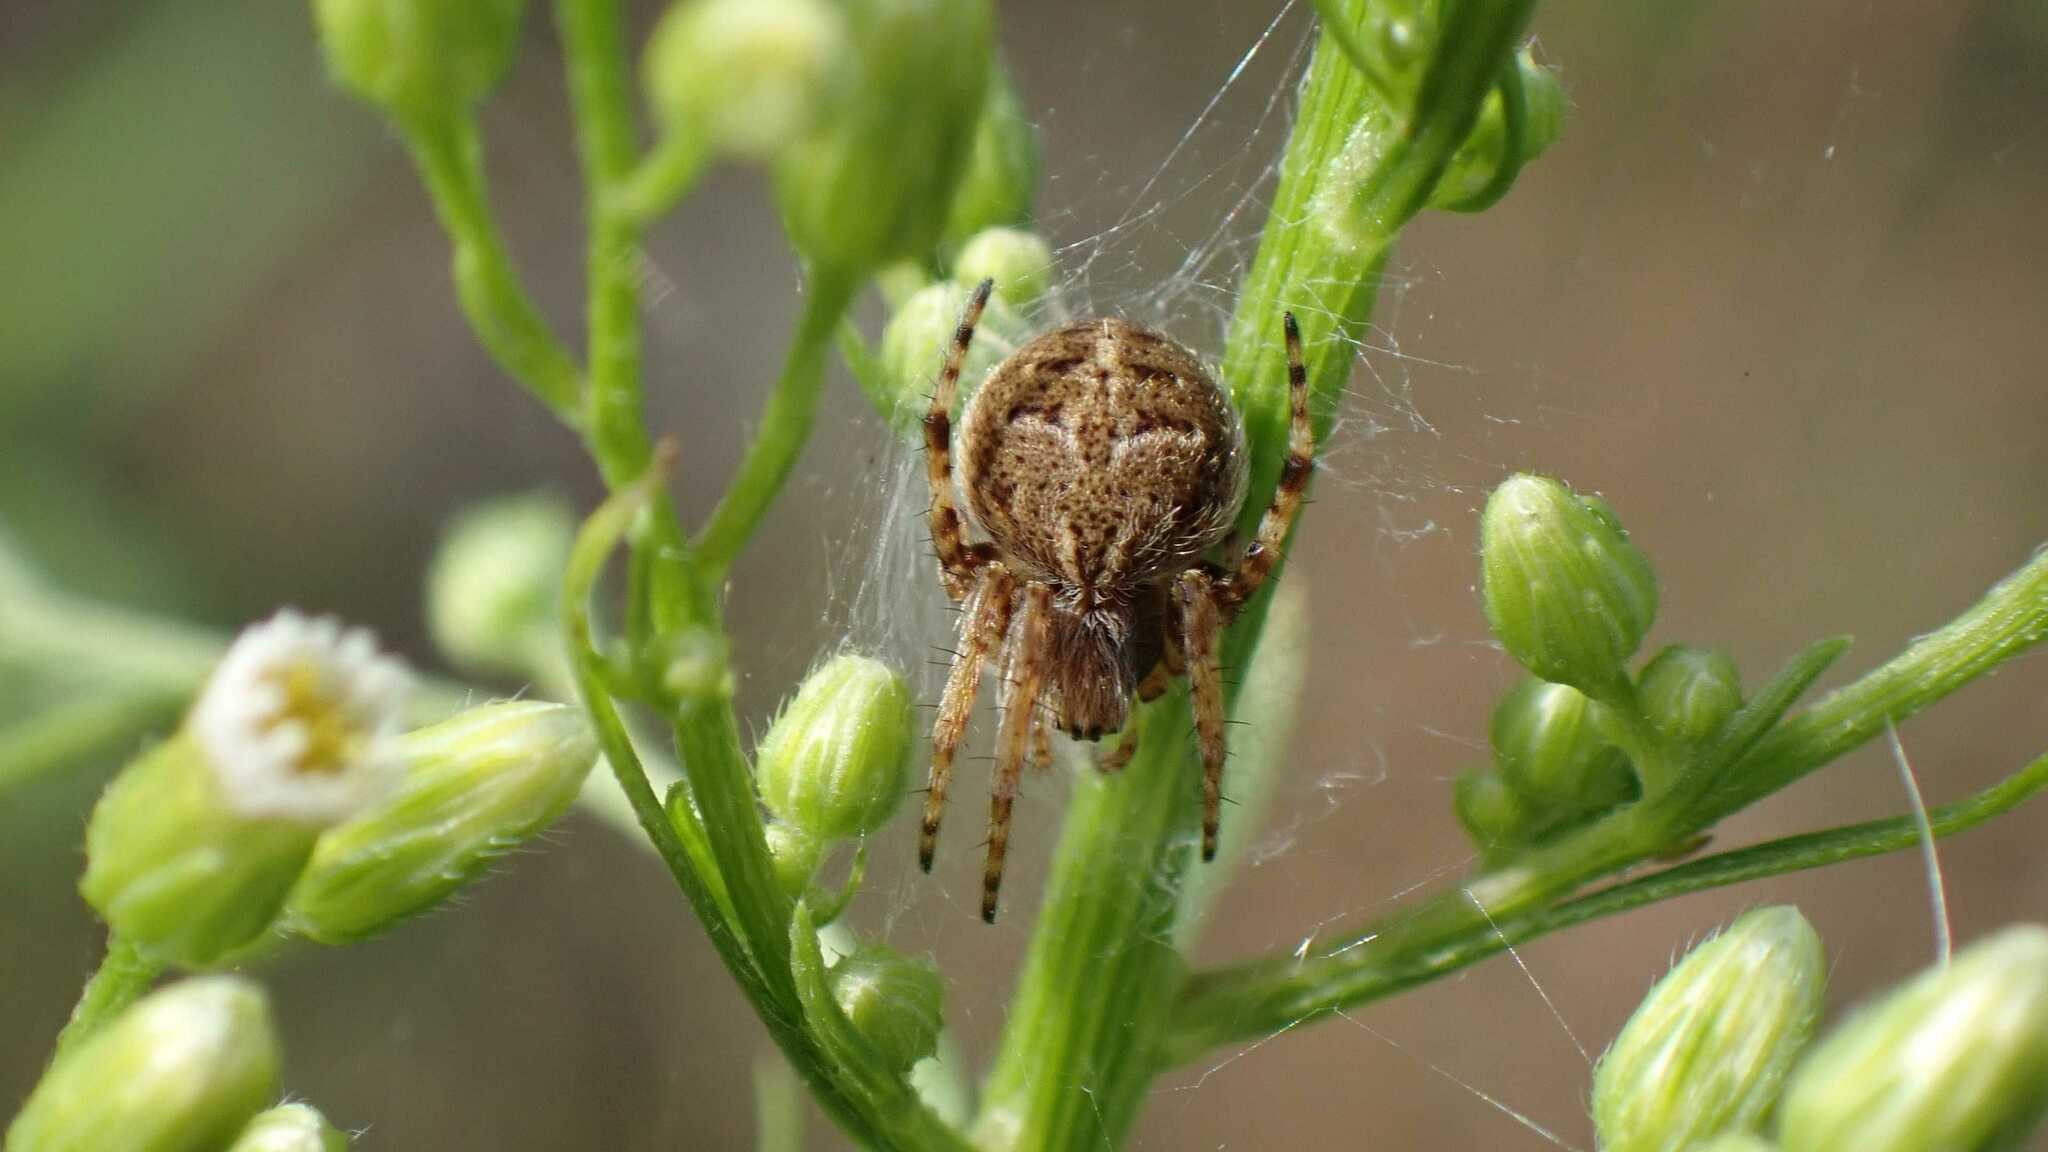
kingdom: Animalia
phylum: Arthropoda
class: Arachnida
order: Araneae
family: Araneidae
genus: Agalenatea
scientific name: Agalenatea redii
